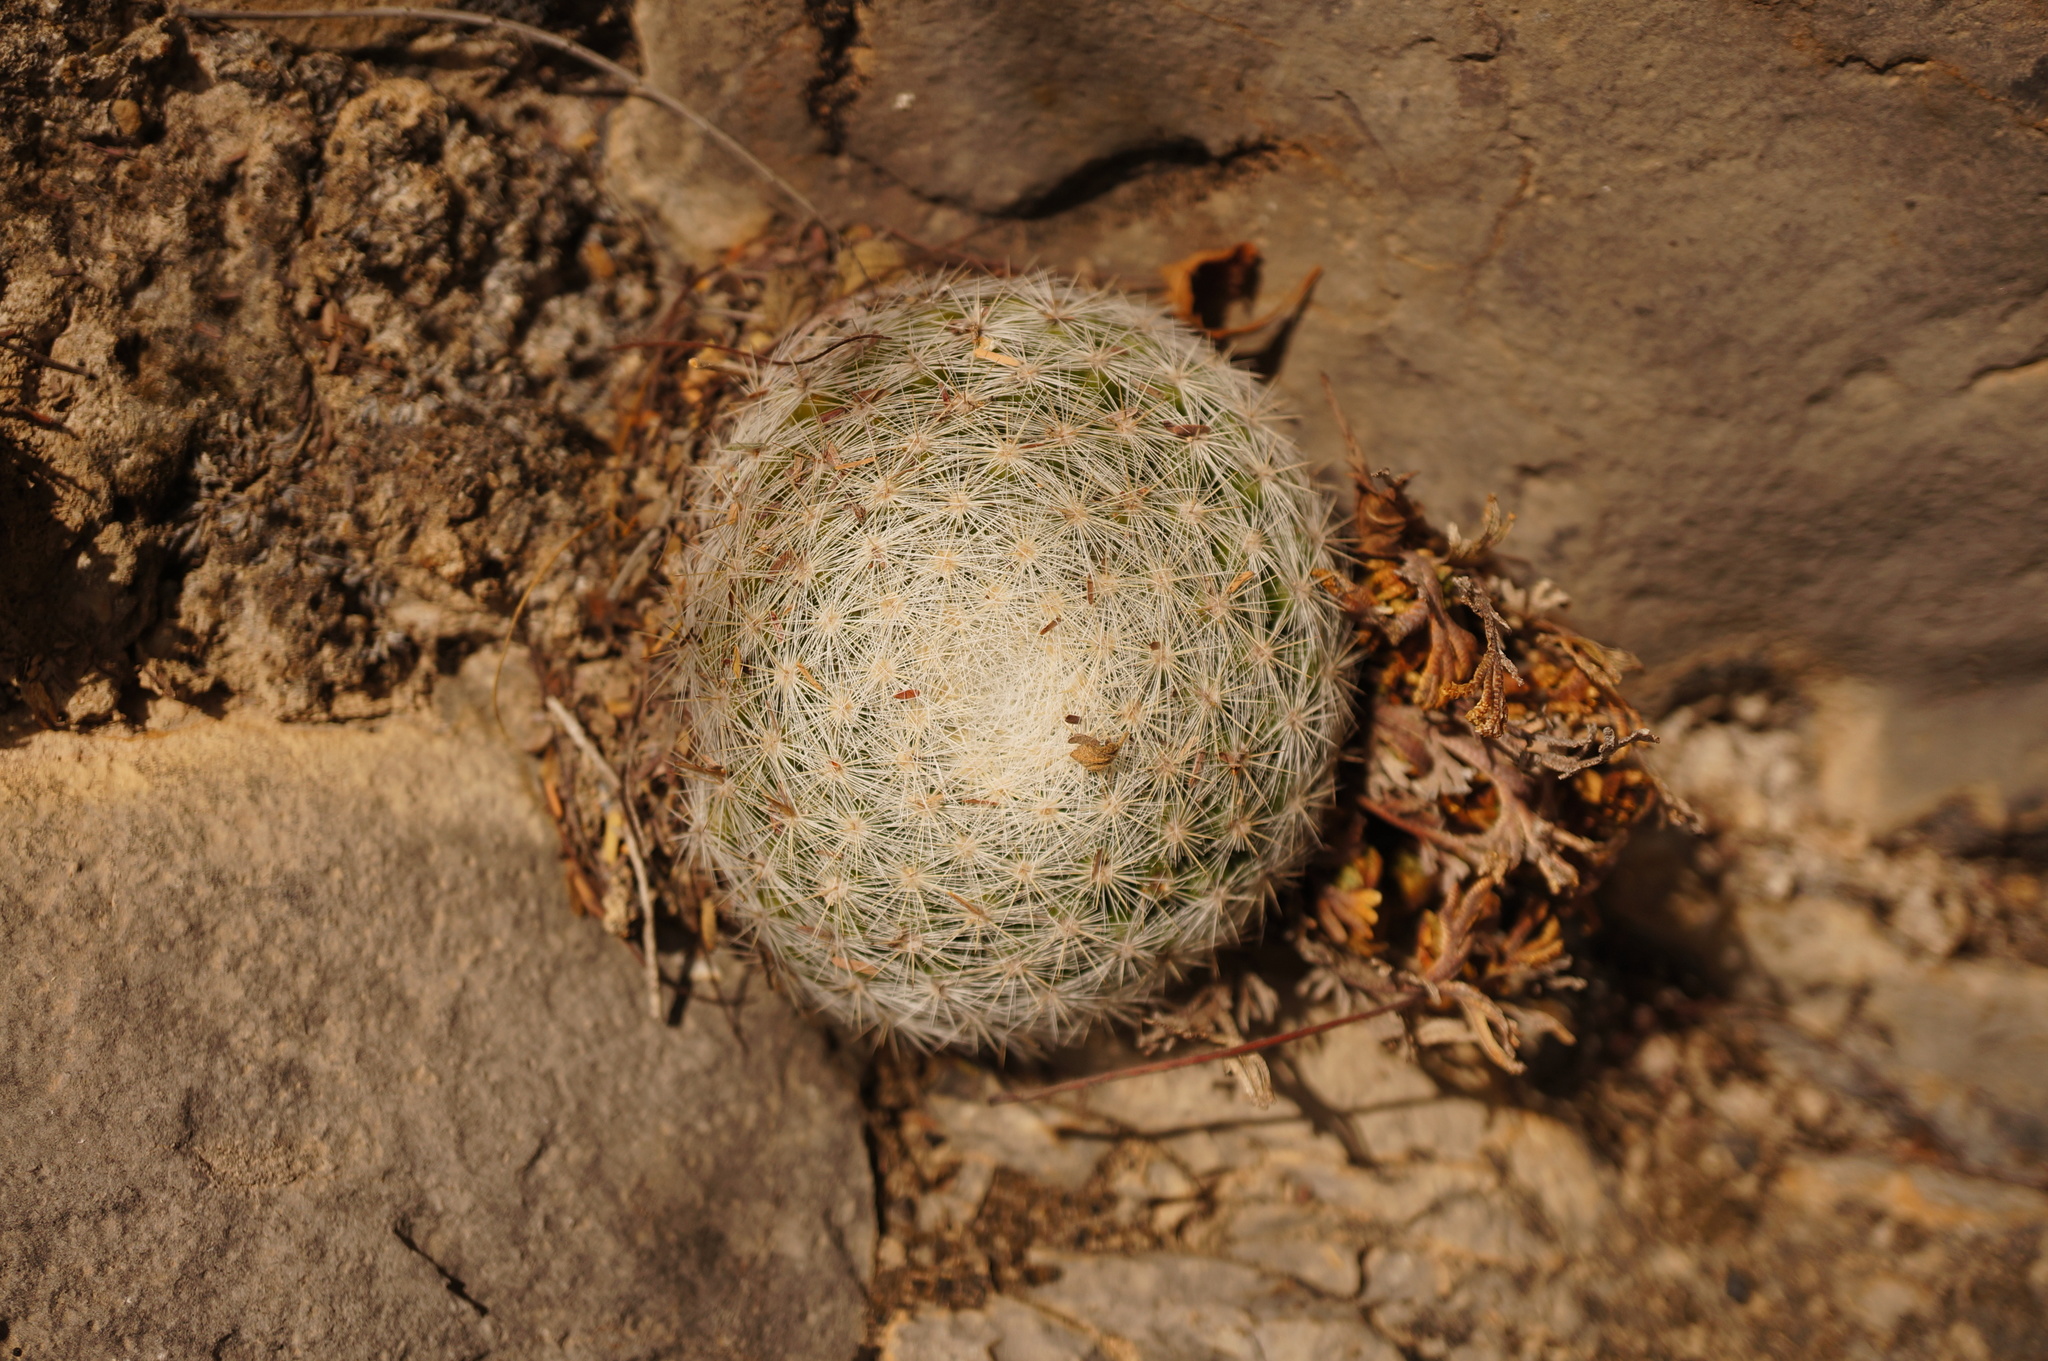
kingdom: Plantae
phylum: Tracheophyta
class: Magnoliopsida
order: Caryophyllales
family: Cactaceae
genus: Mammillaria
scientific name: Mammillaria candida
